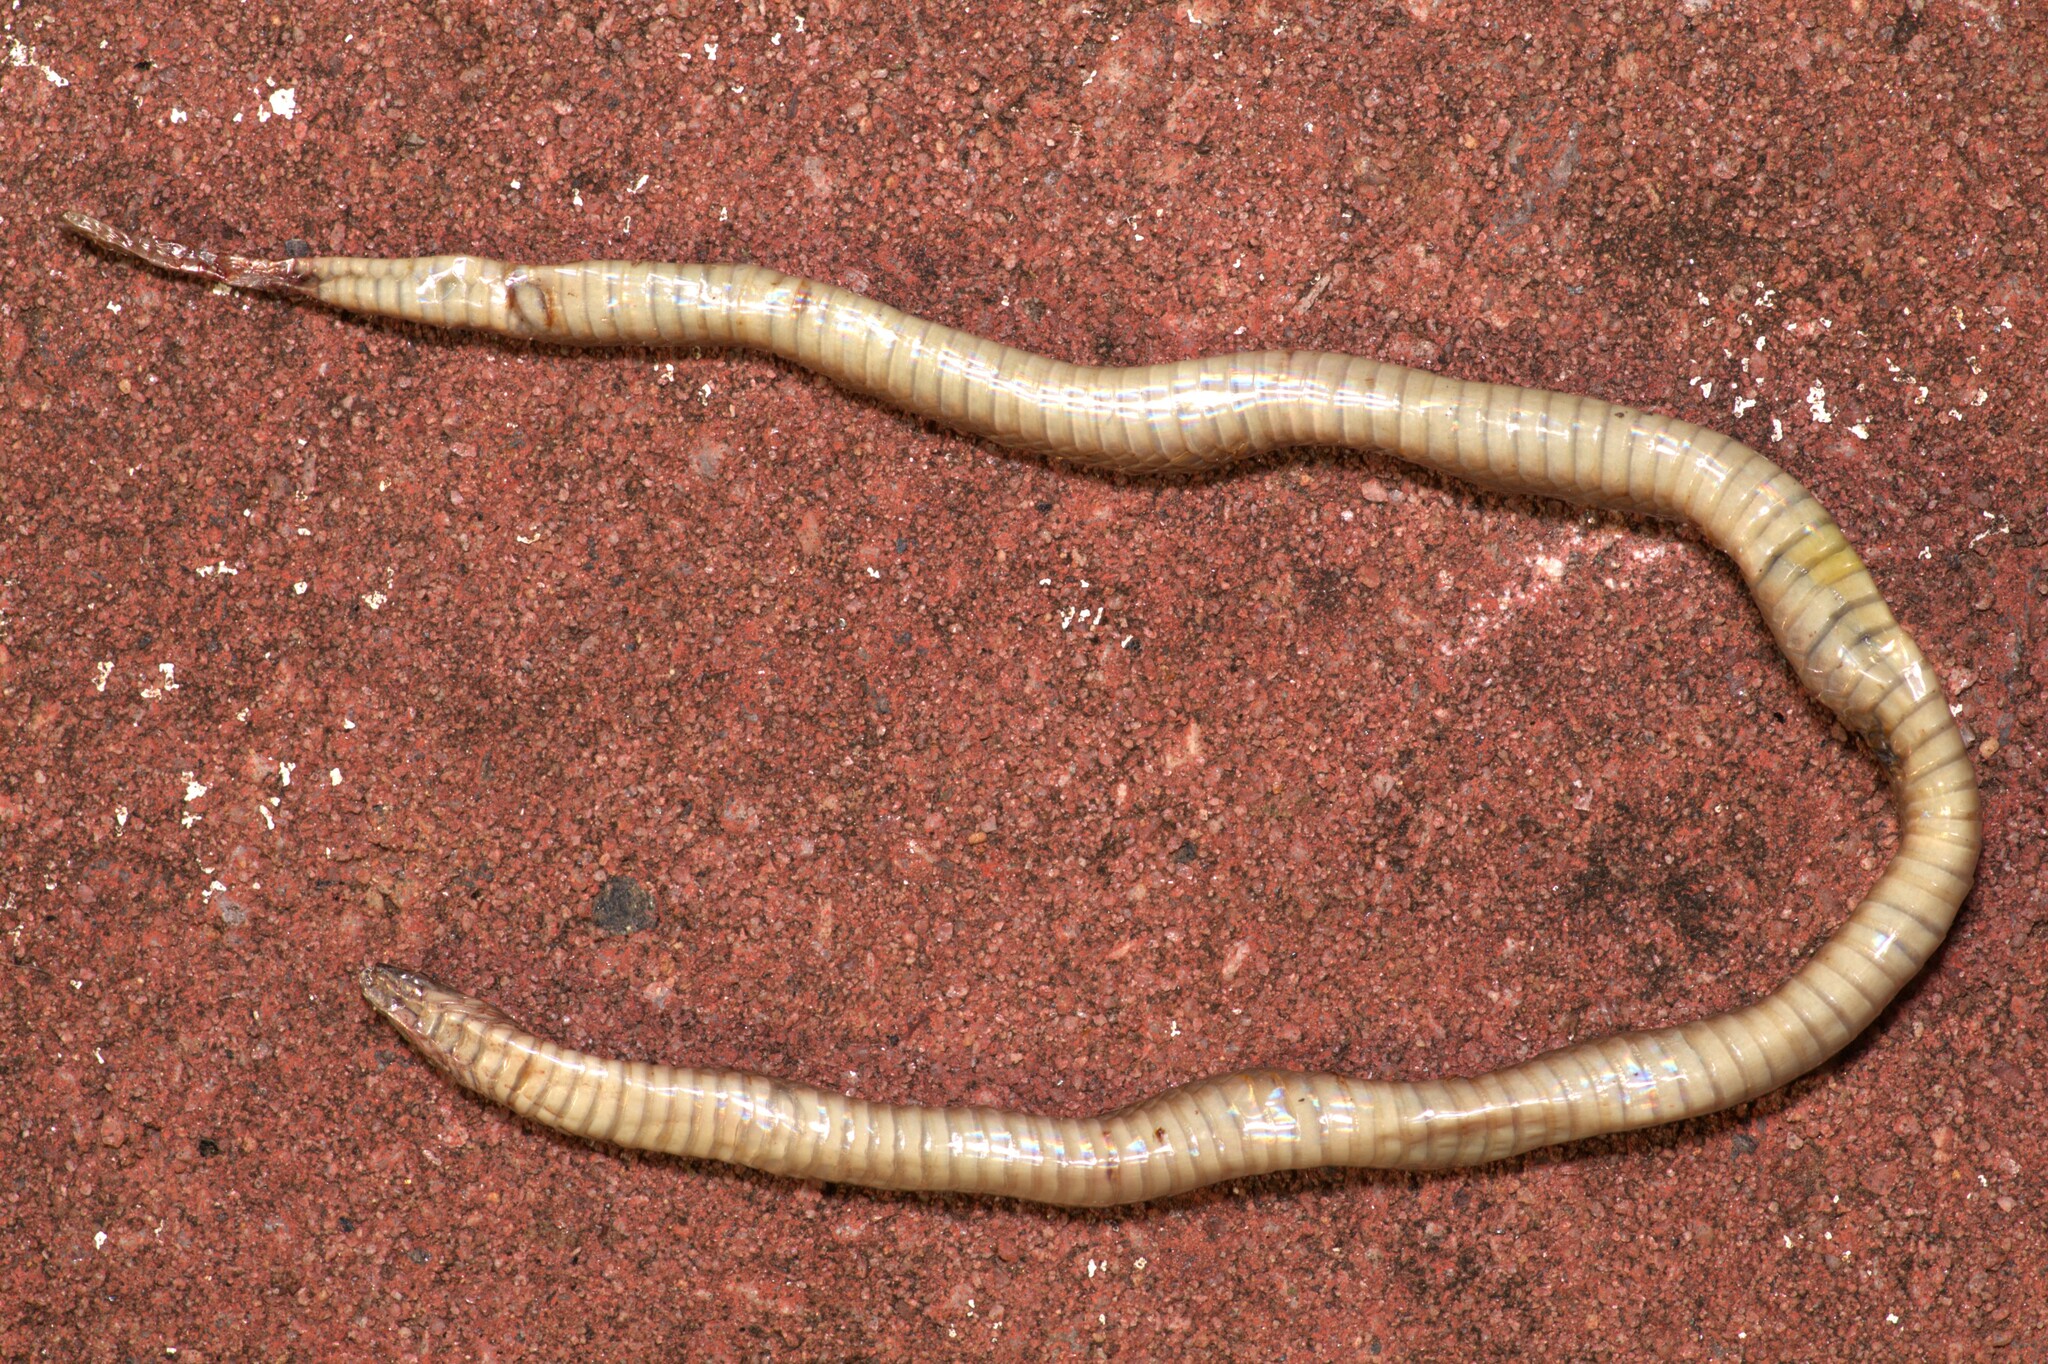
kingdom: Animalia
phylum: Chordata
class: Squamata
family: Colubridae
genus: Haldea
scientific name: Haldea striatula
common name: Rough earth snake
